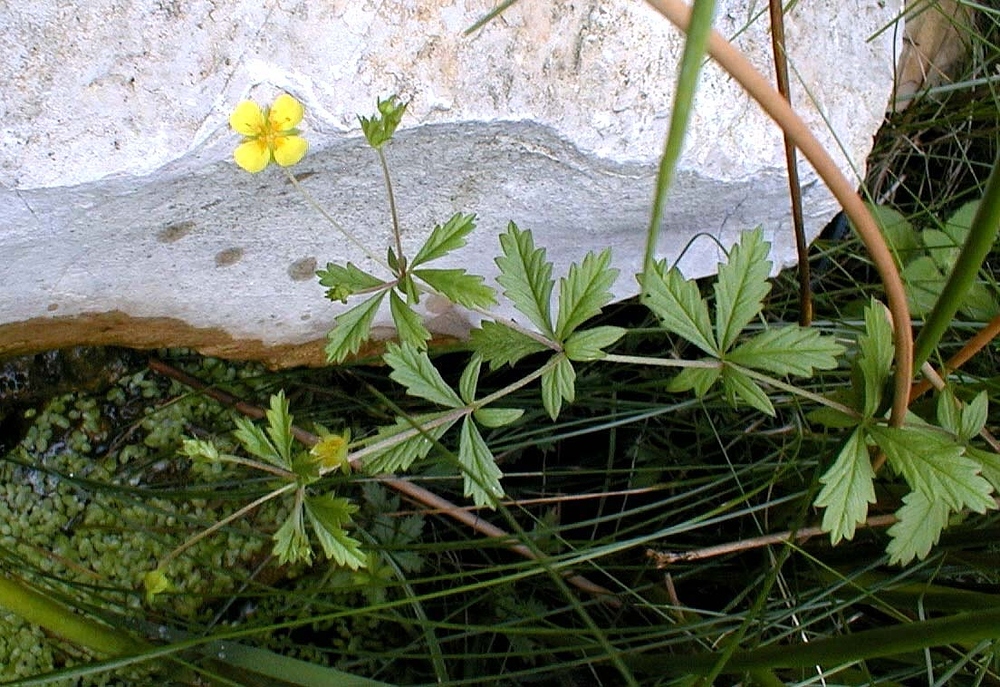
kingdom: Plantae
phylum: Tracheophyta
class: Magnoliopsida
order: Rosales
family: Rosaceae
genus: Potentilla
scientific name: Potentilla erecta
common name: Tormentil
